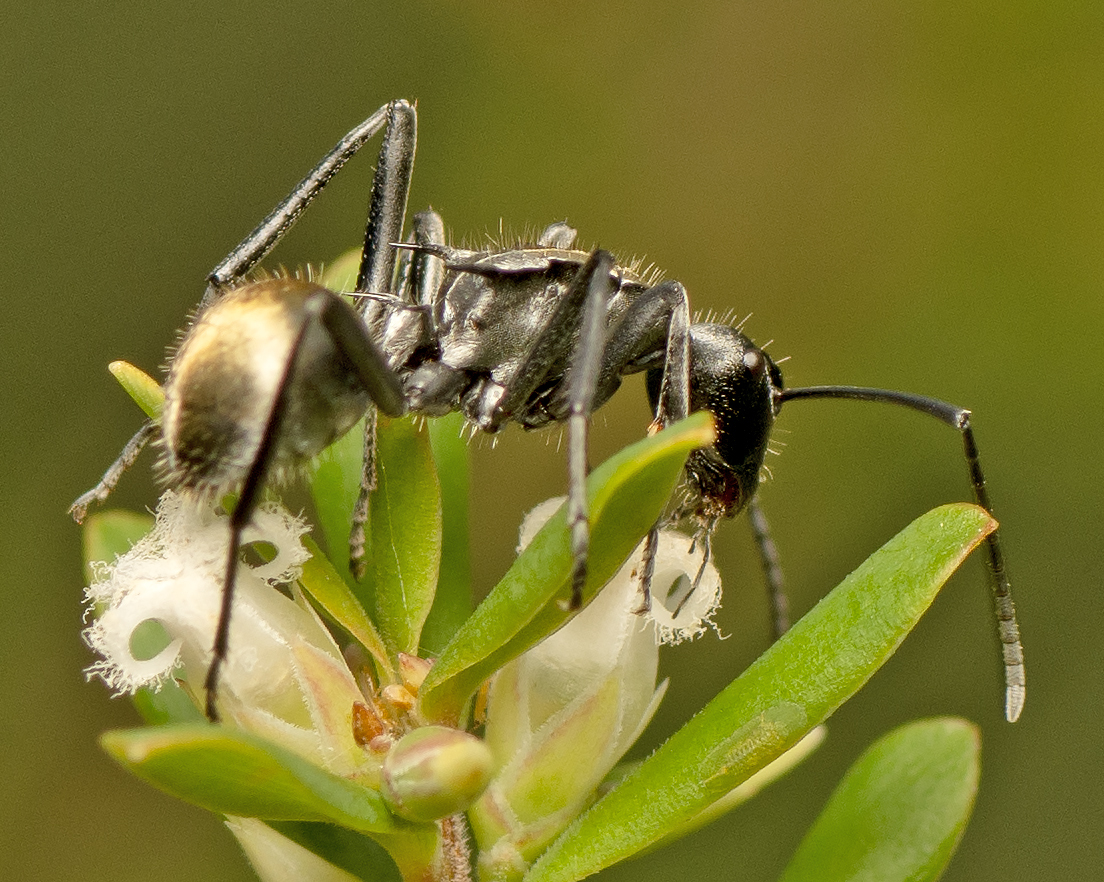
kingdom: Animalia
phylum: Arthropoda
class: Insecta
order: Hymenoptera
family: Formicidae
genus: Polyrhachis
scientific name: Polyrhachis ammon
